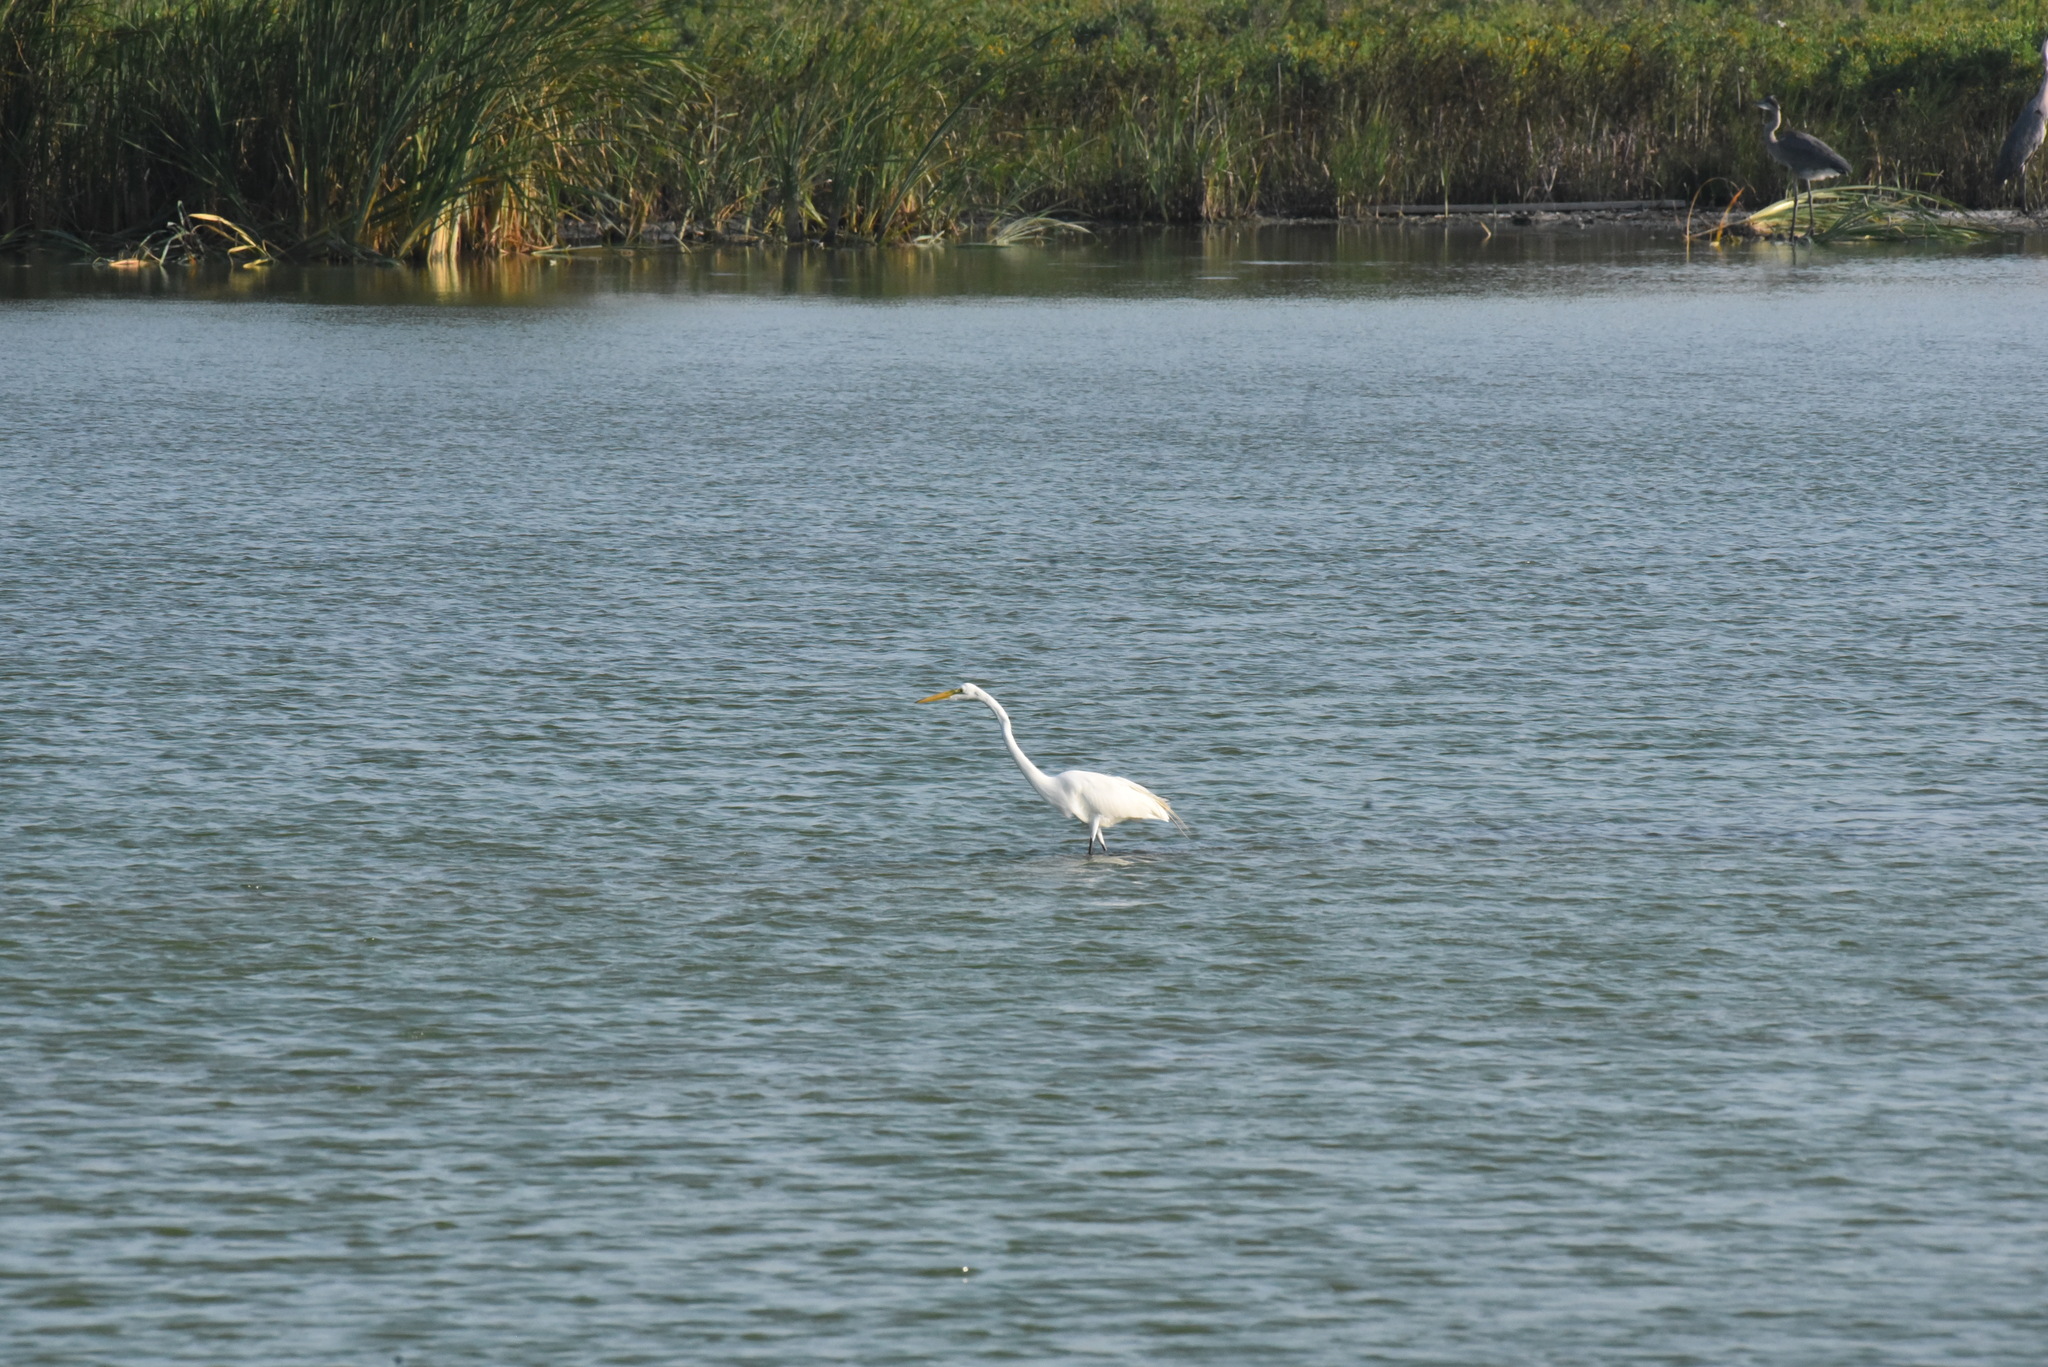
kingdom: Animalia
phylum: Chordata
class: Aves
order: Pelecaniformes
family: Ardeidae
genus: Ardea
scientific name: Ardea alba
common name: Great egret
